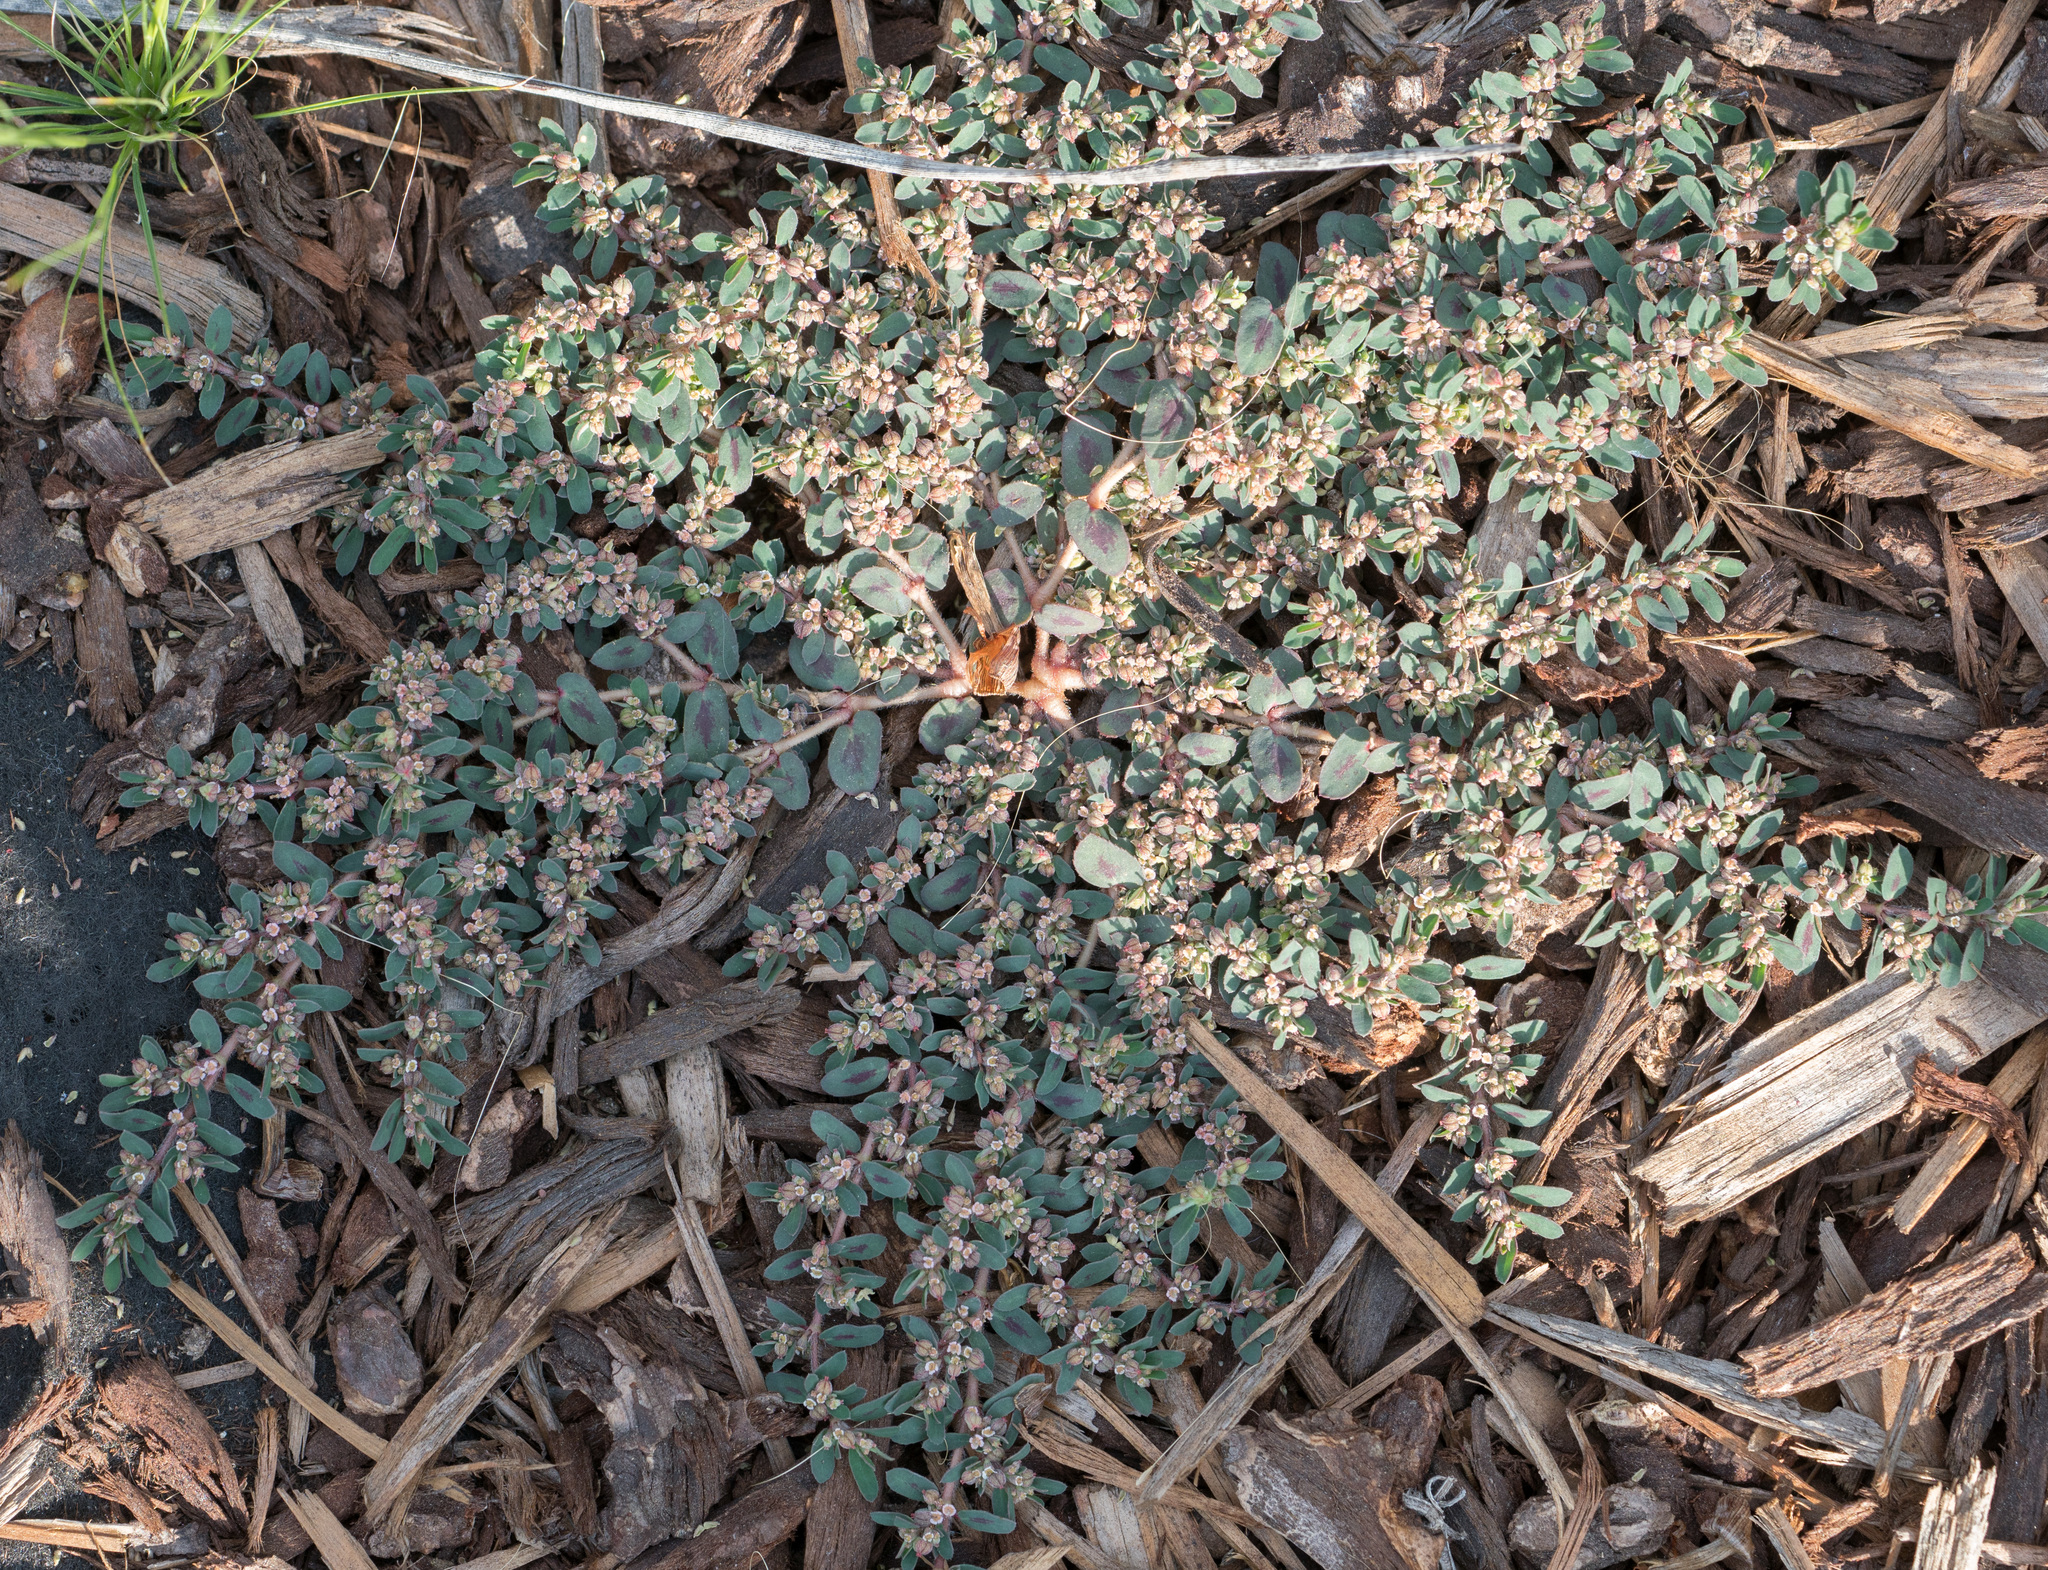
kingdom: Plantae
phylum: Tracheophyta
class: Magnoliopsida
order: Malpighiales
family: Euphorbiaceae
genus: Euphorbia
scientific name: Euphorbia maculata
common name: Spotted spurge
